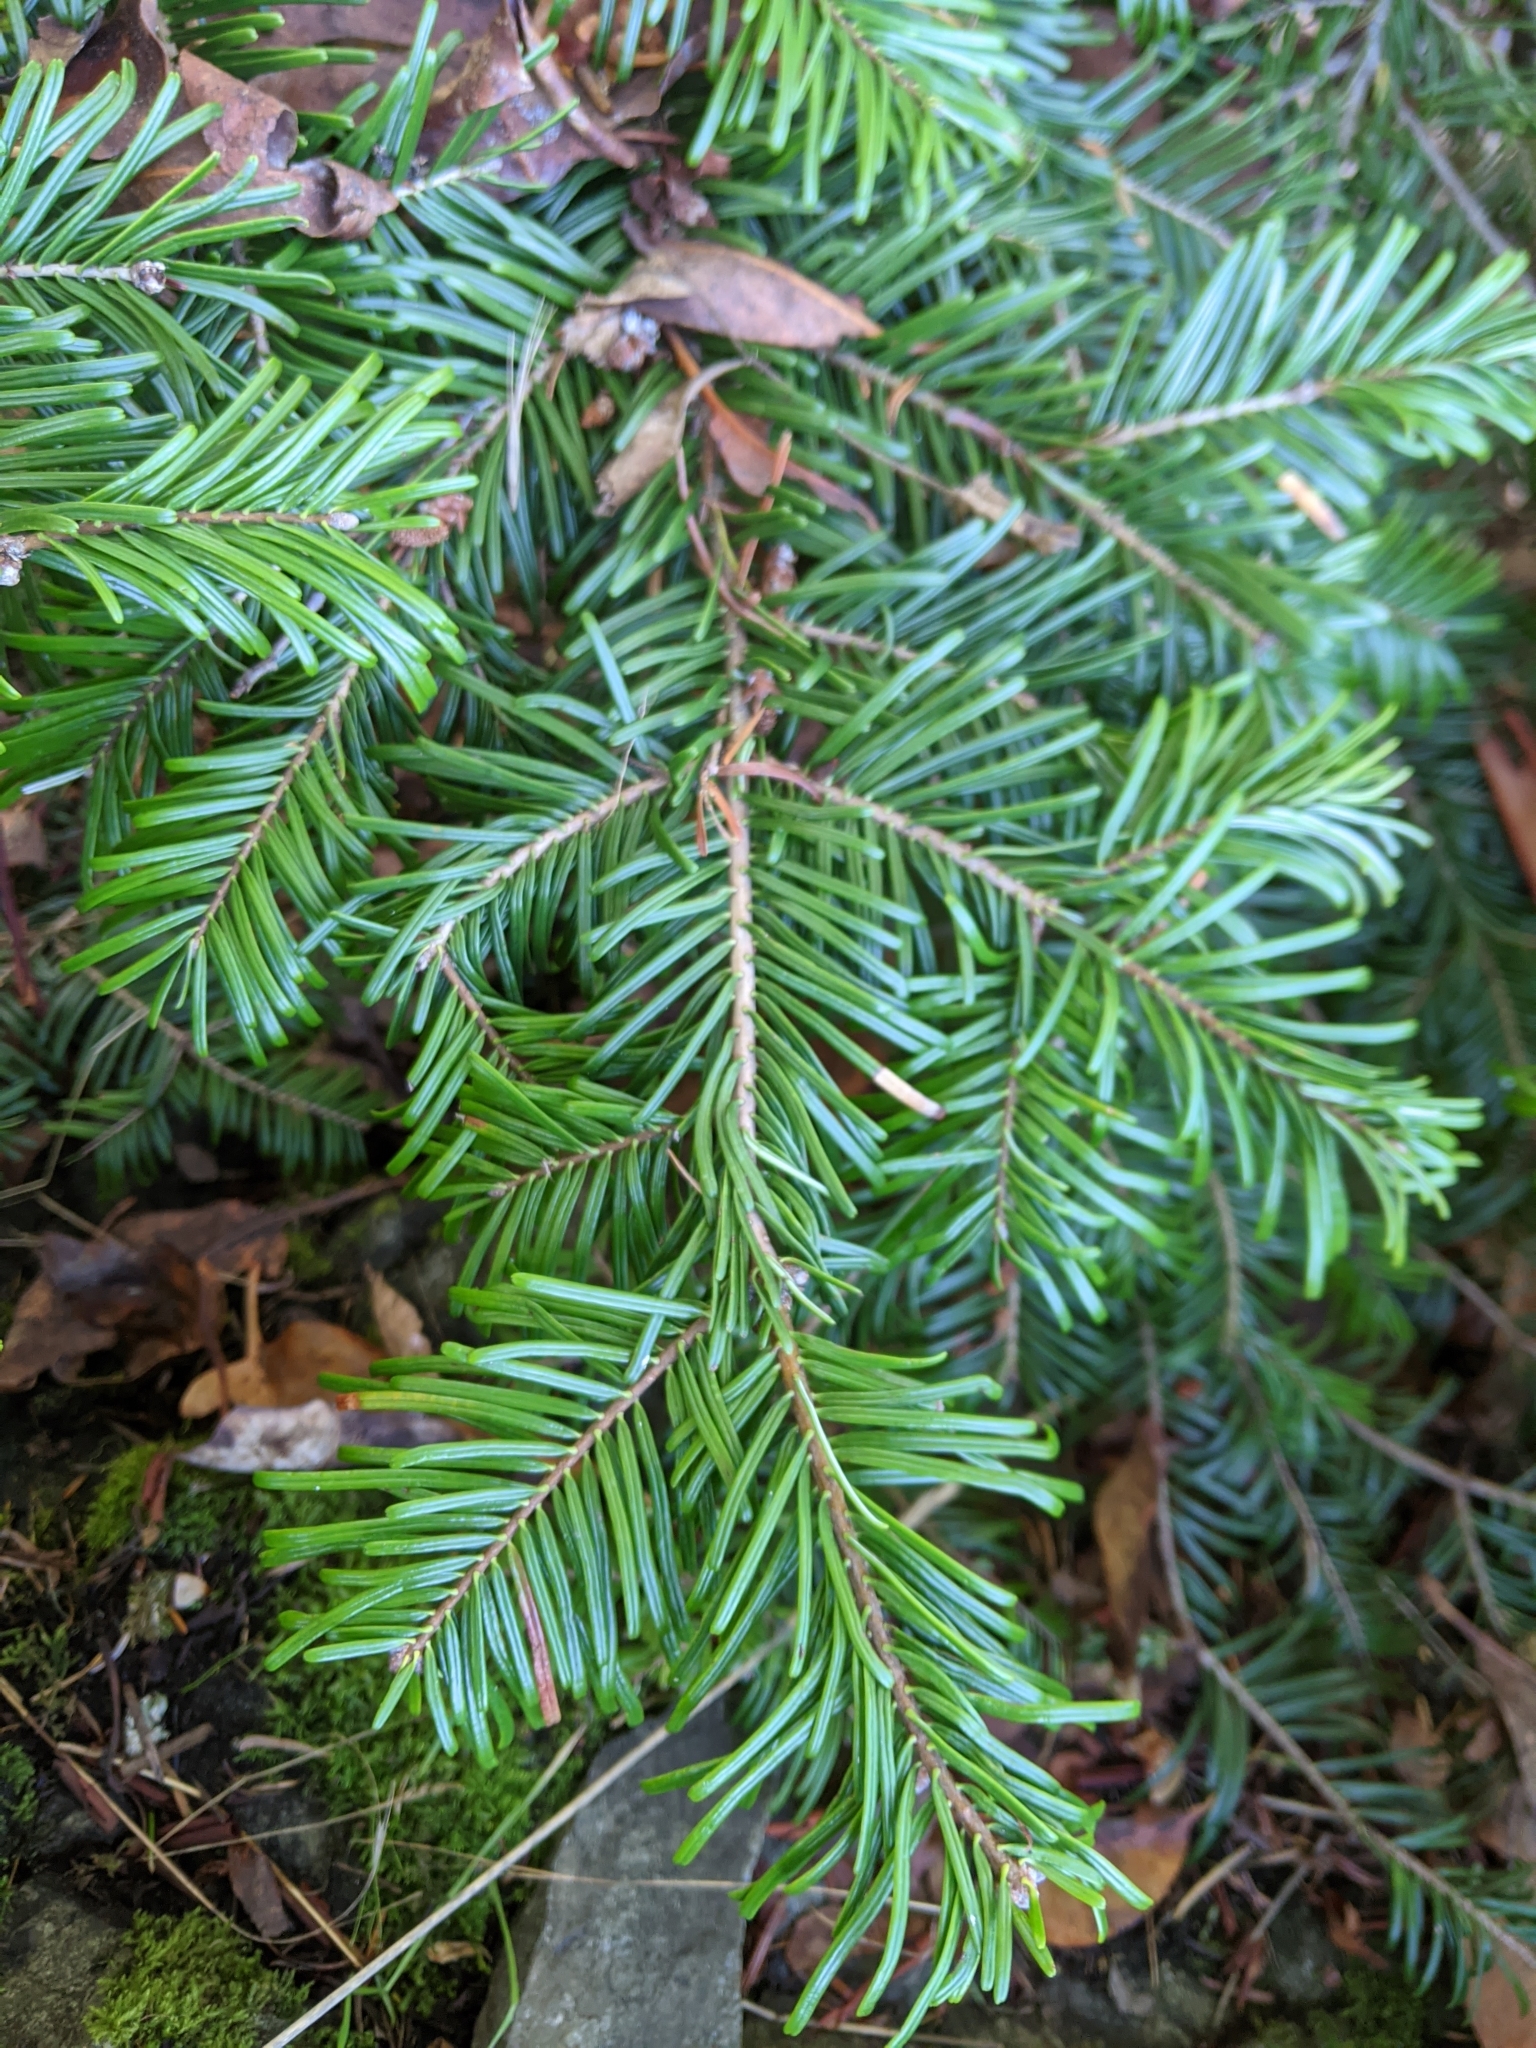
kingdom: Plantae
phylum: Tracheophyta
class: Pinopsida
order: Pinales
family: Pinaceae
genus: Abies
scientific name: Abies grandis
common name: Giant fir
